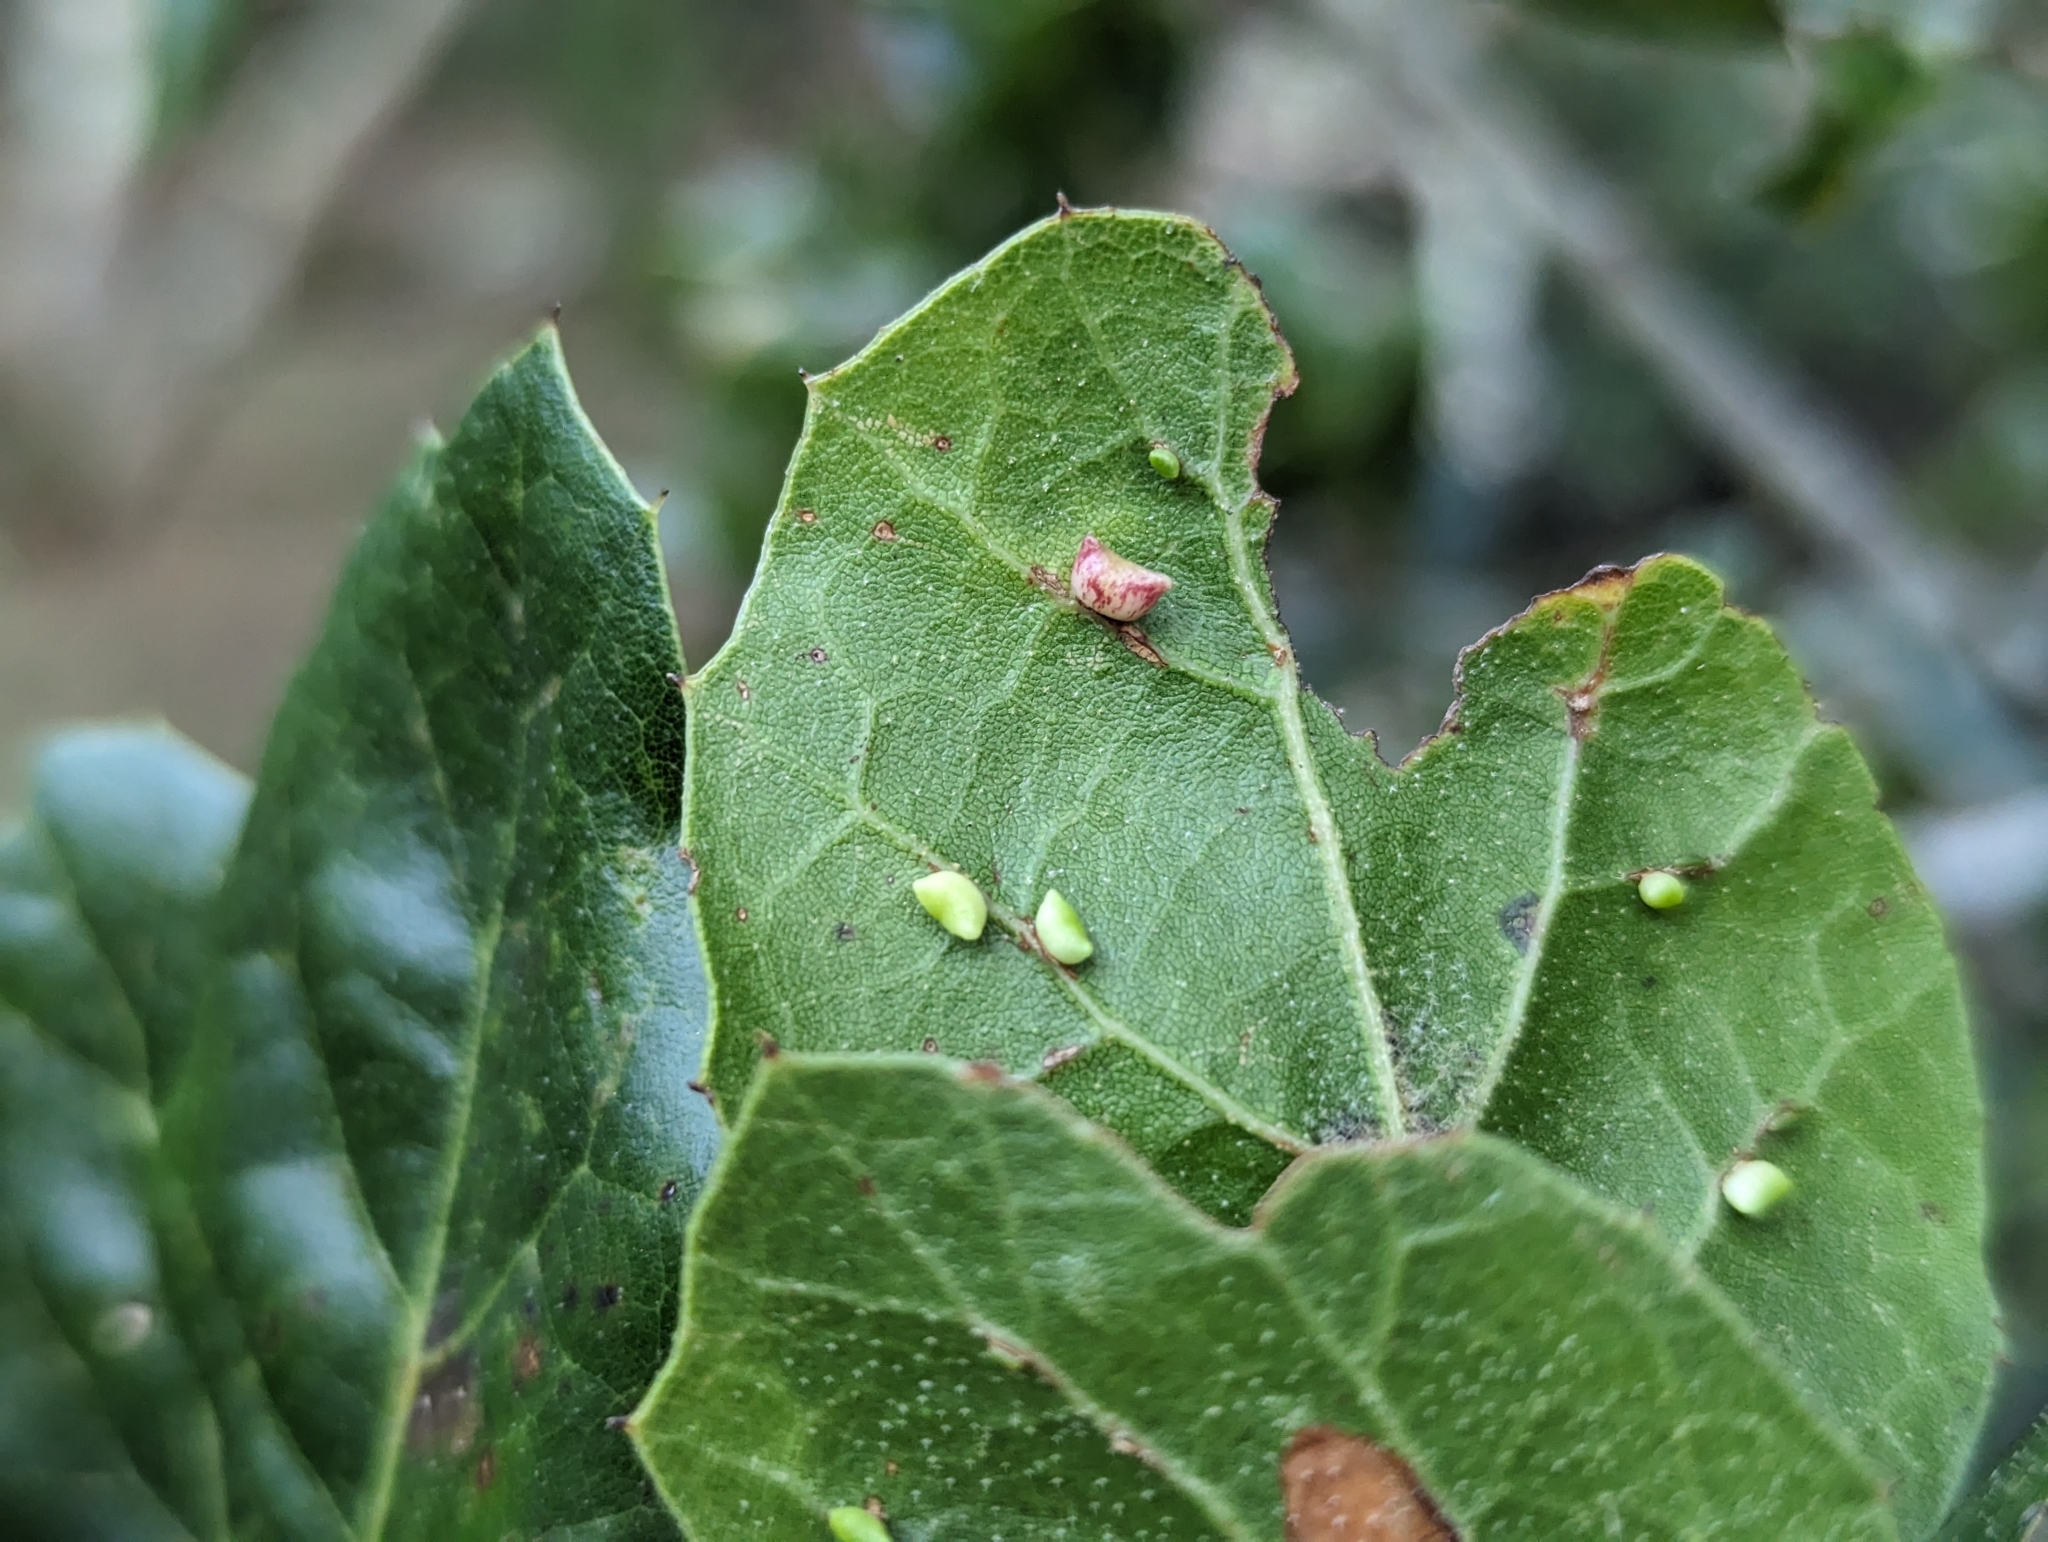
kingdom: Animalia
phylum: Arthropoda
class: Insecta
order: Hymenoptera
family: Cynipidae
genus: Dryocosmus
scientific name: Dryocosmus
